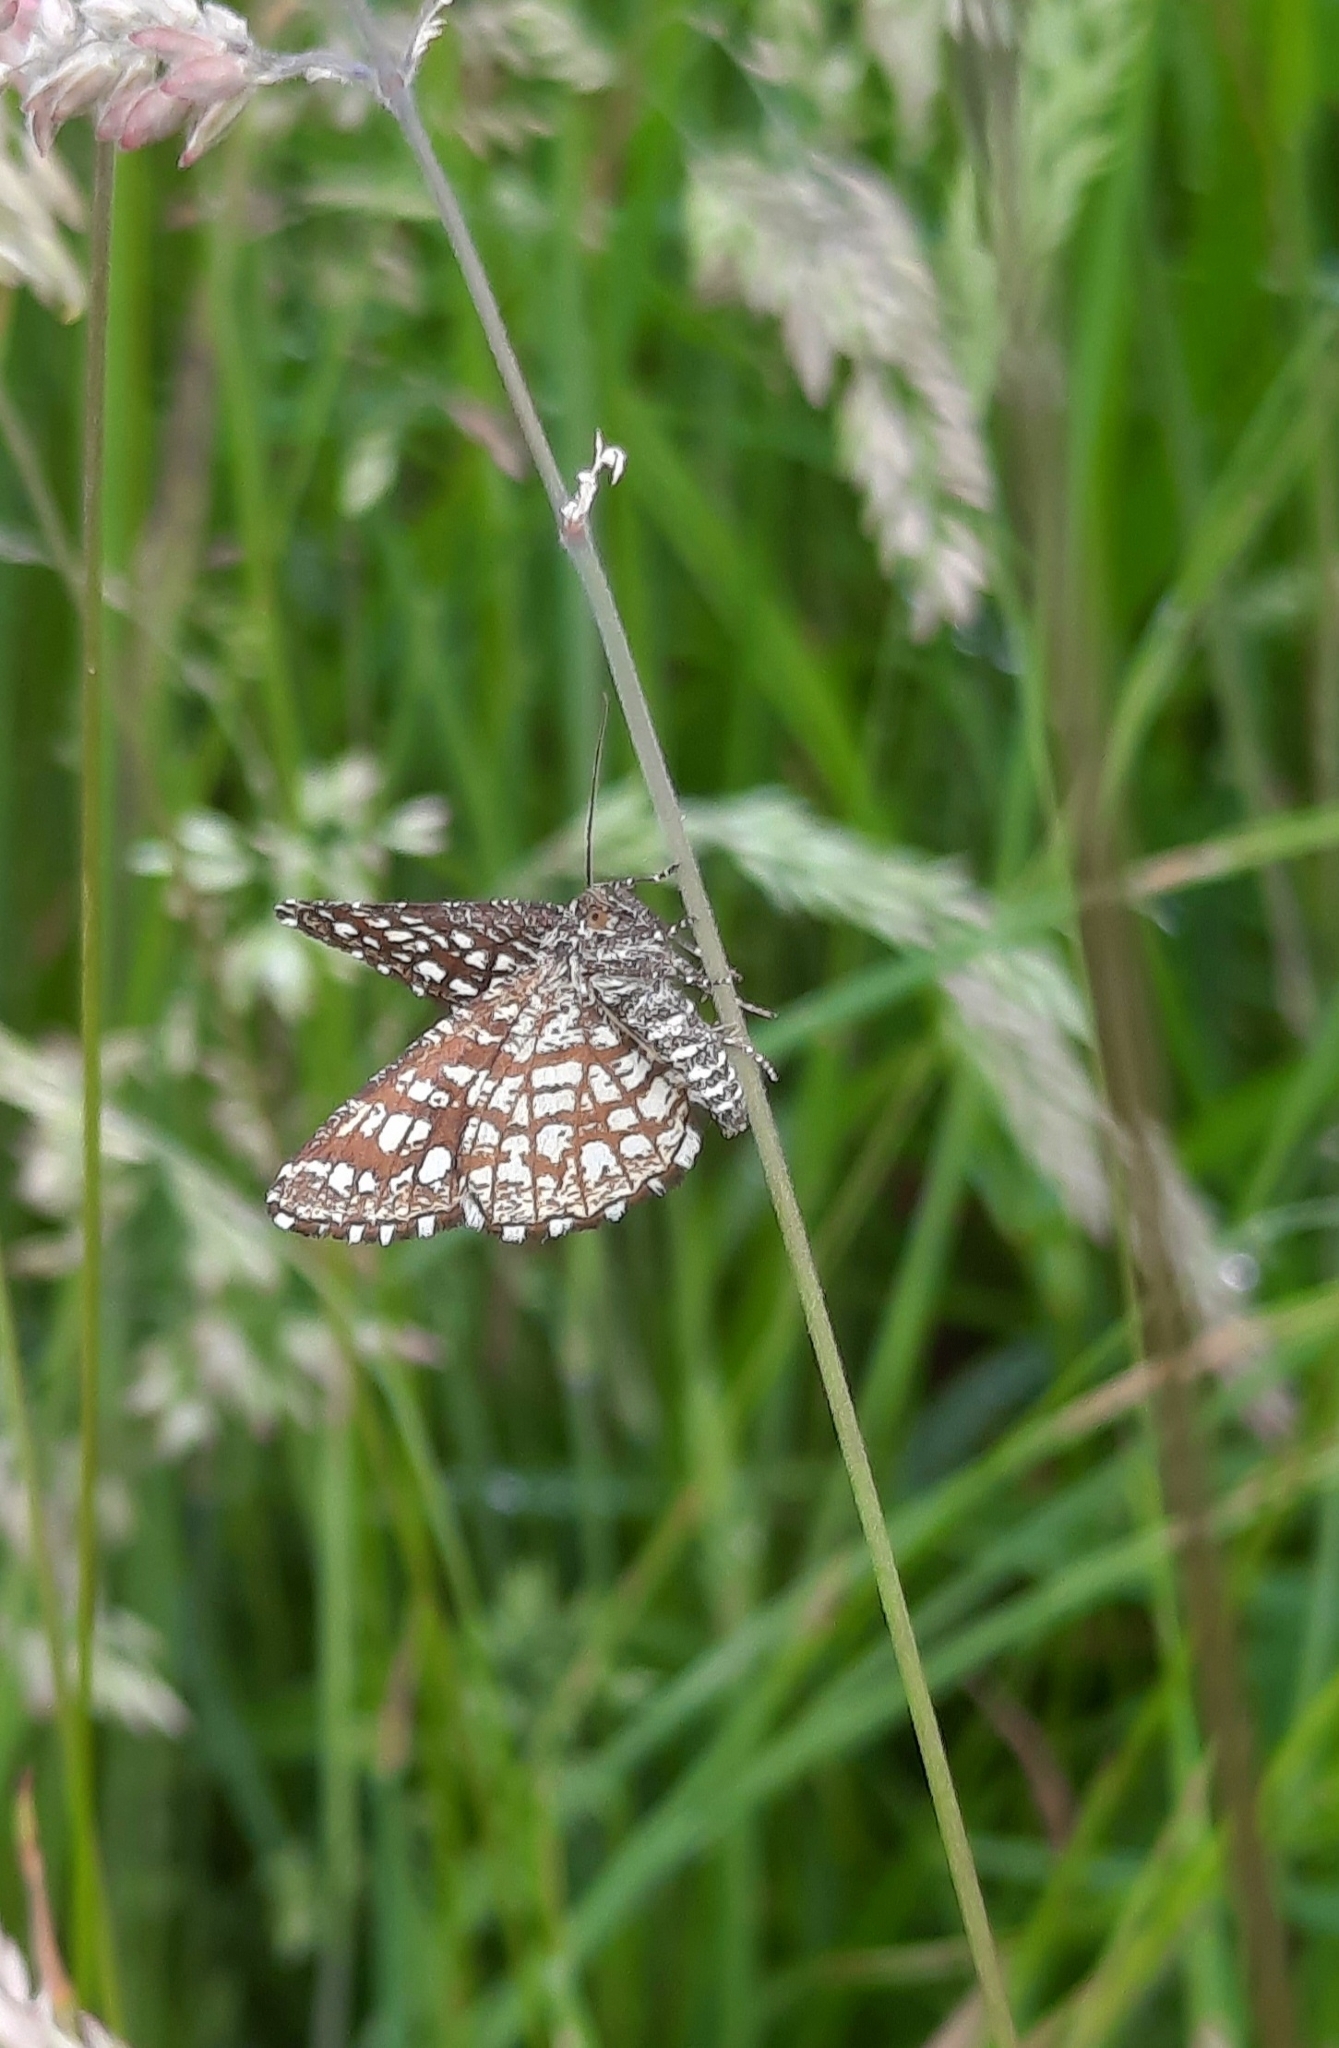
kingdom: Animalia
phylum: Arthropoda
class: Insecta
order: Lepidoptera
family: Geometridae
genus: Chiasmia
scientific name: Chiasmia clathrata
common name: Latticed heath
